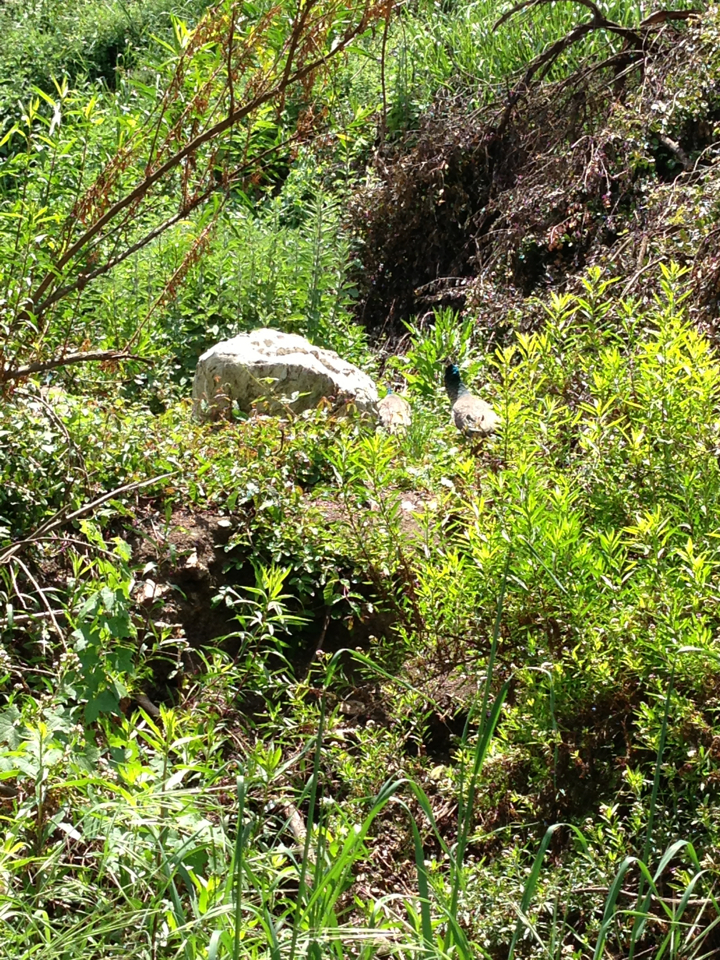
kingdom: Animalia
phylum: Chordata
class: Aves
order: Galliformes
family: Phasianidae
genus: Pavo
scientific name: Pavo cristatus
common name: Indian peafowl
